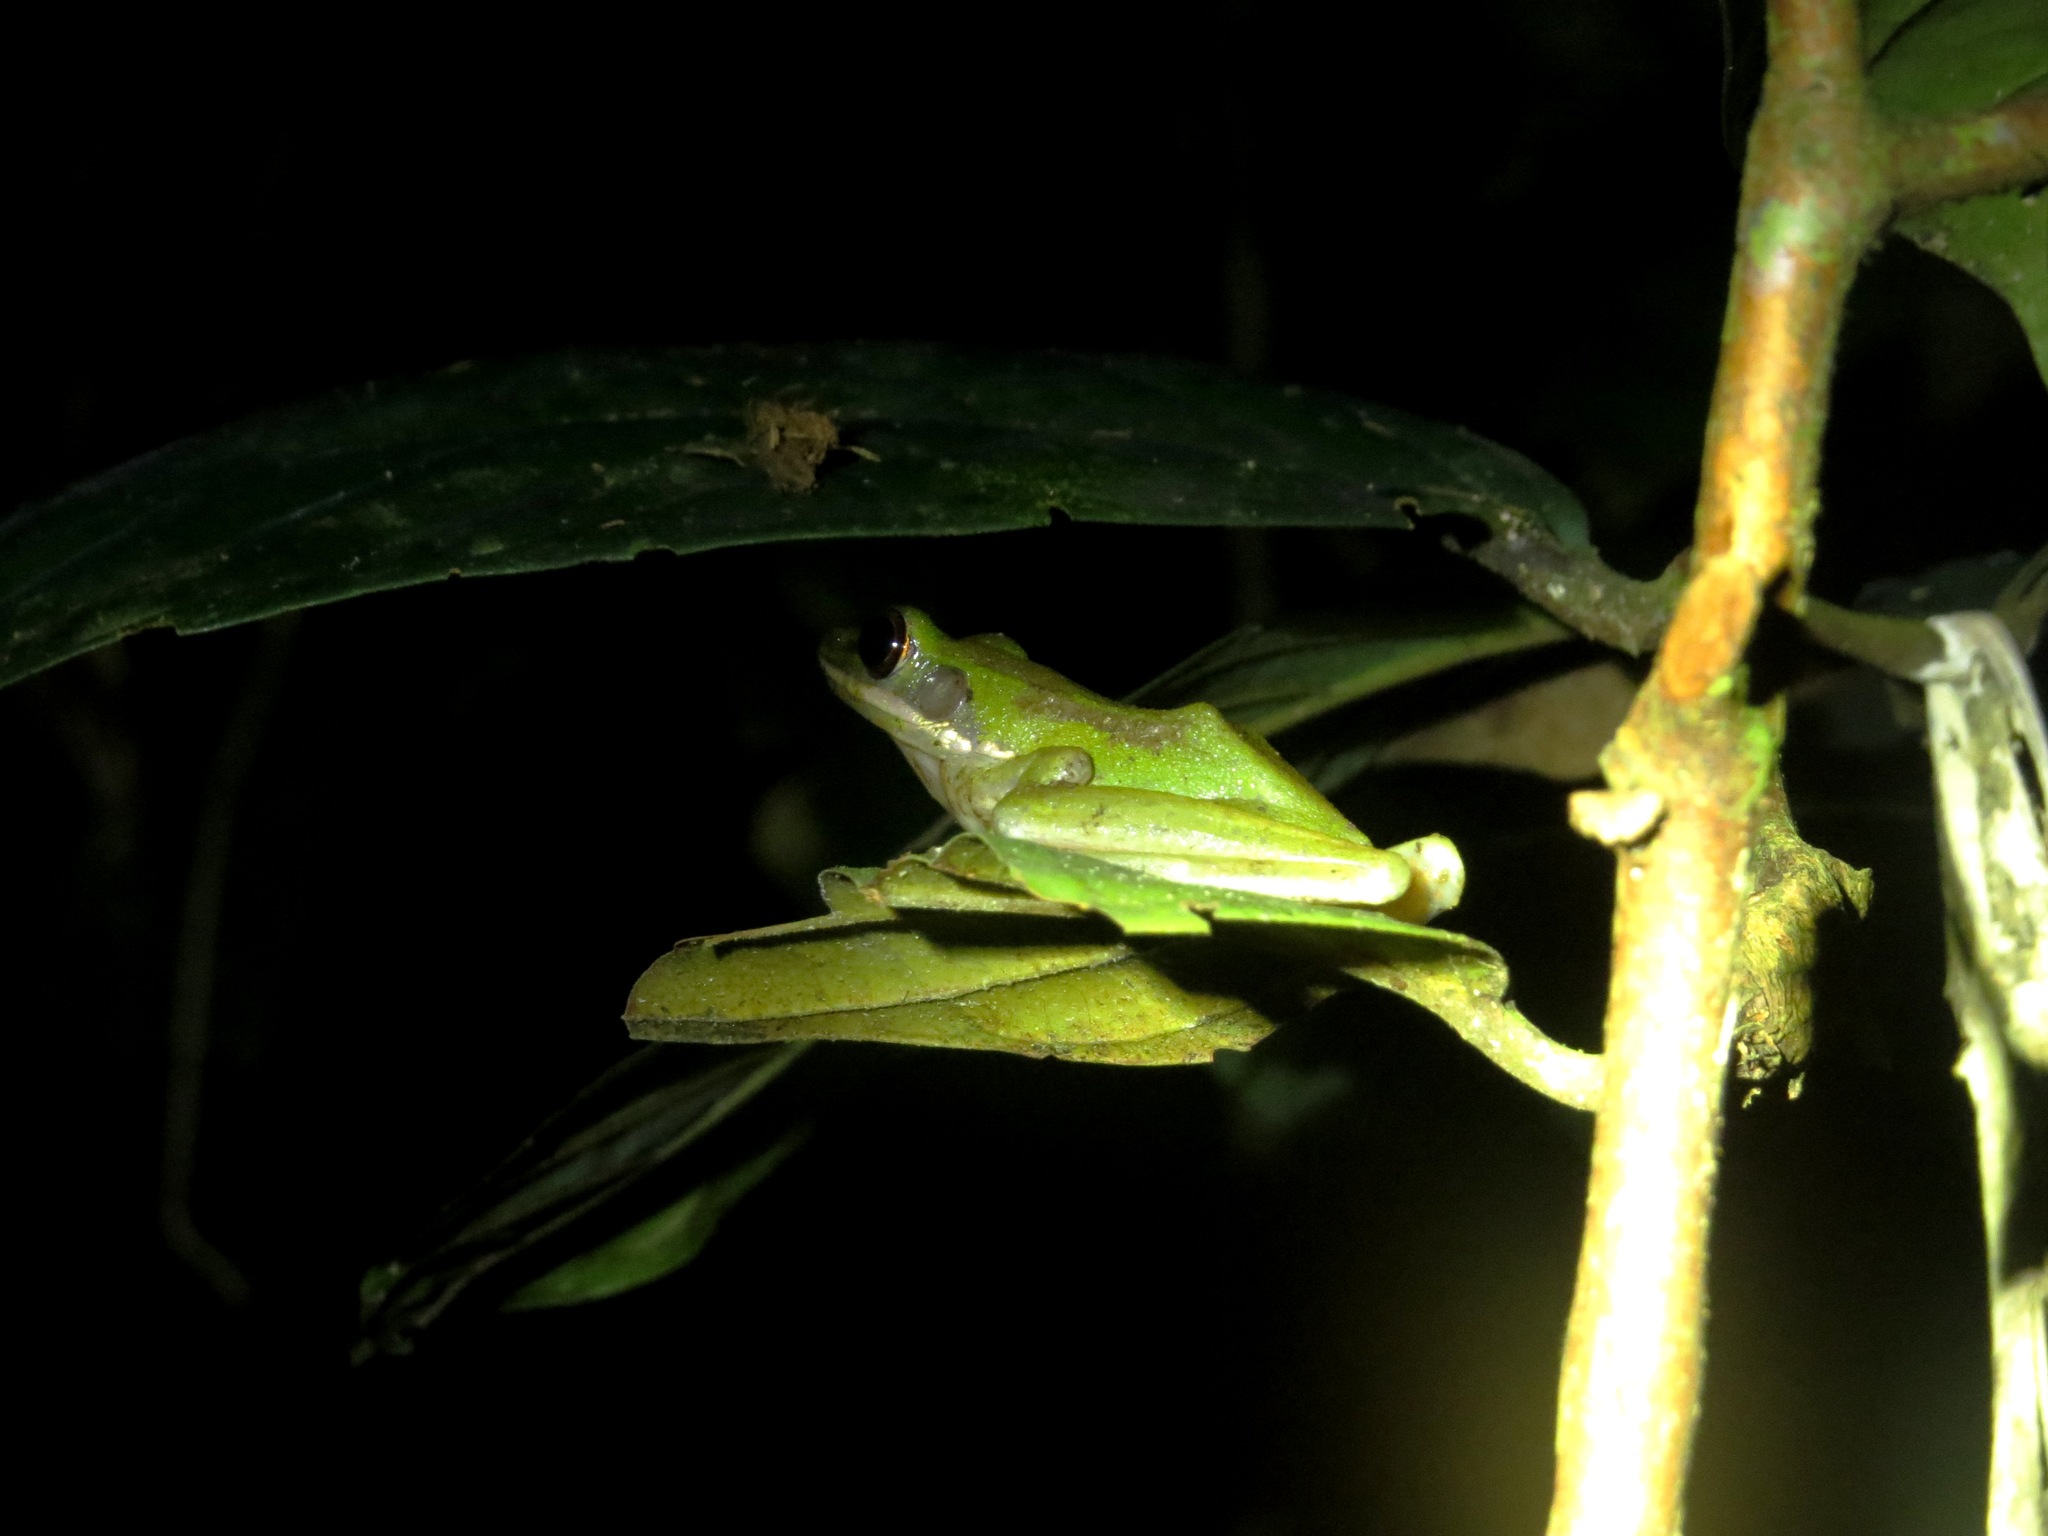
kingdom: Animalia
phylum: Chordata
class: Amphibia
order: Anura
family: Ranidae
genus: Chalcorana
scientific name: Chalcorana raniceps
